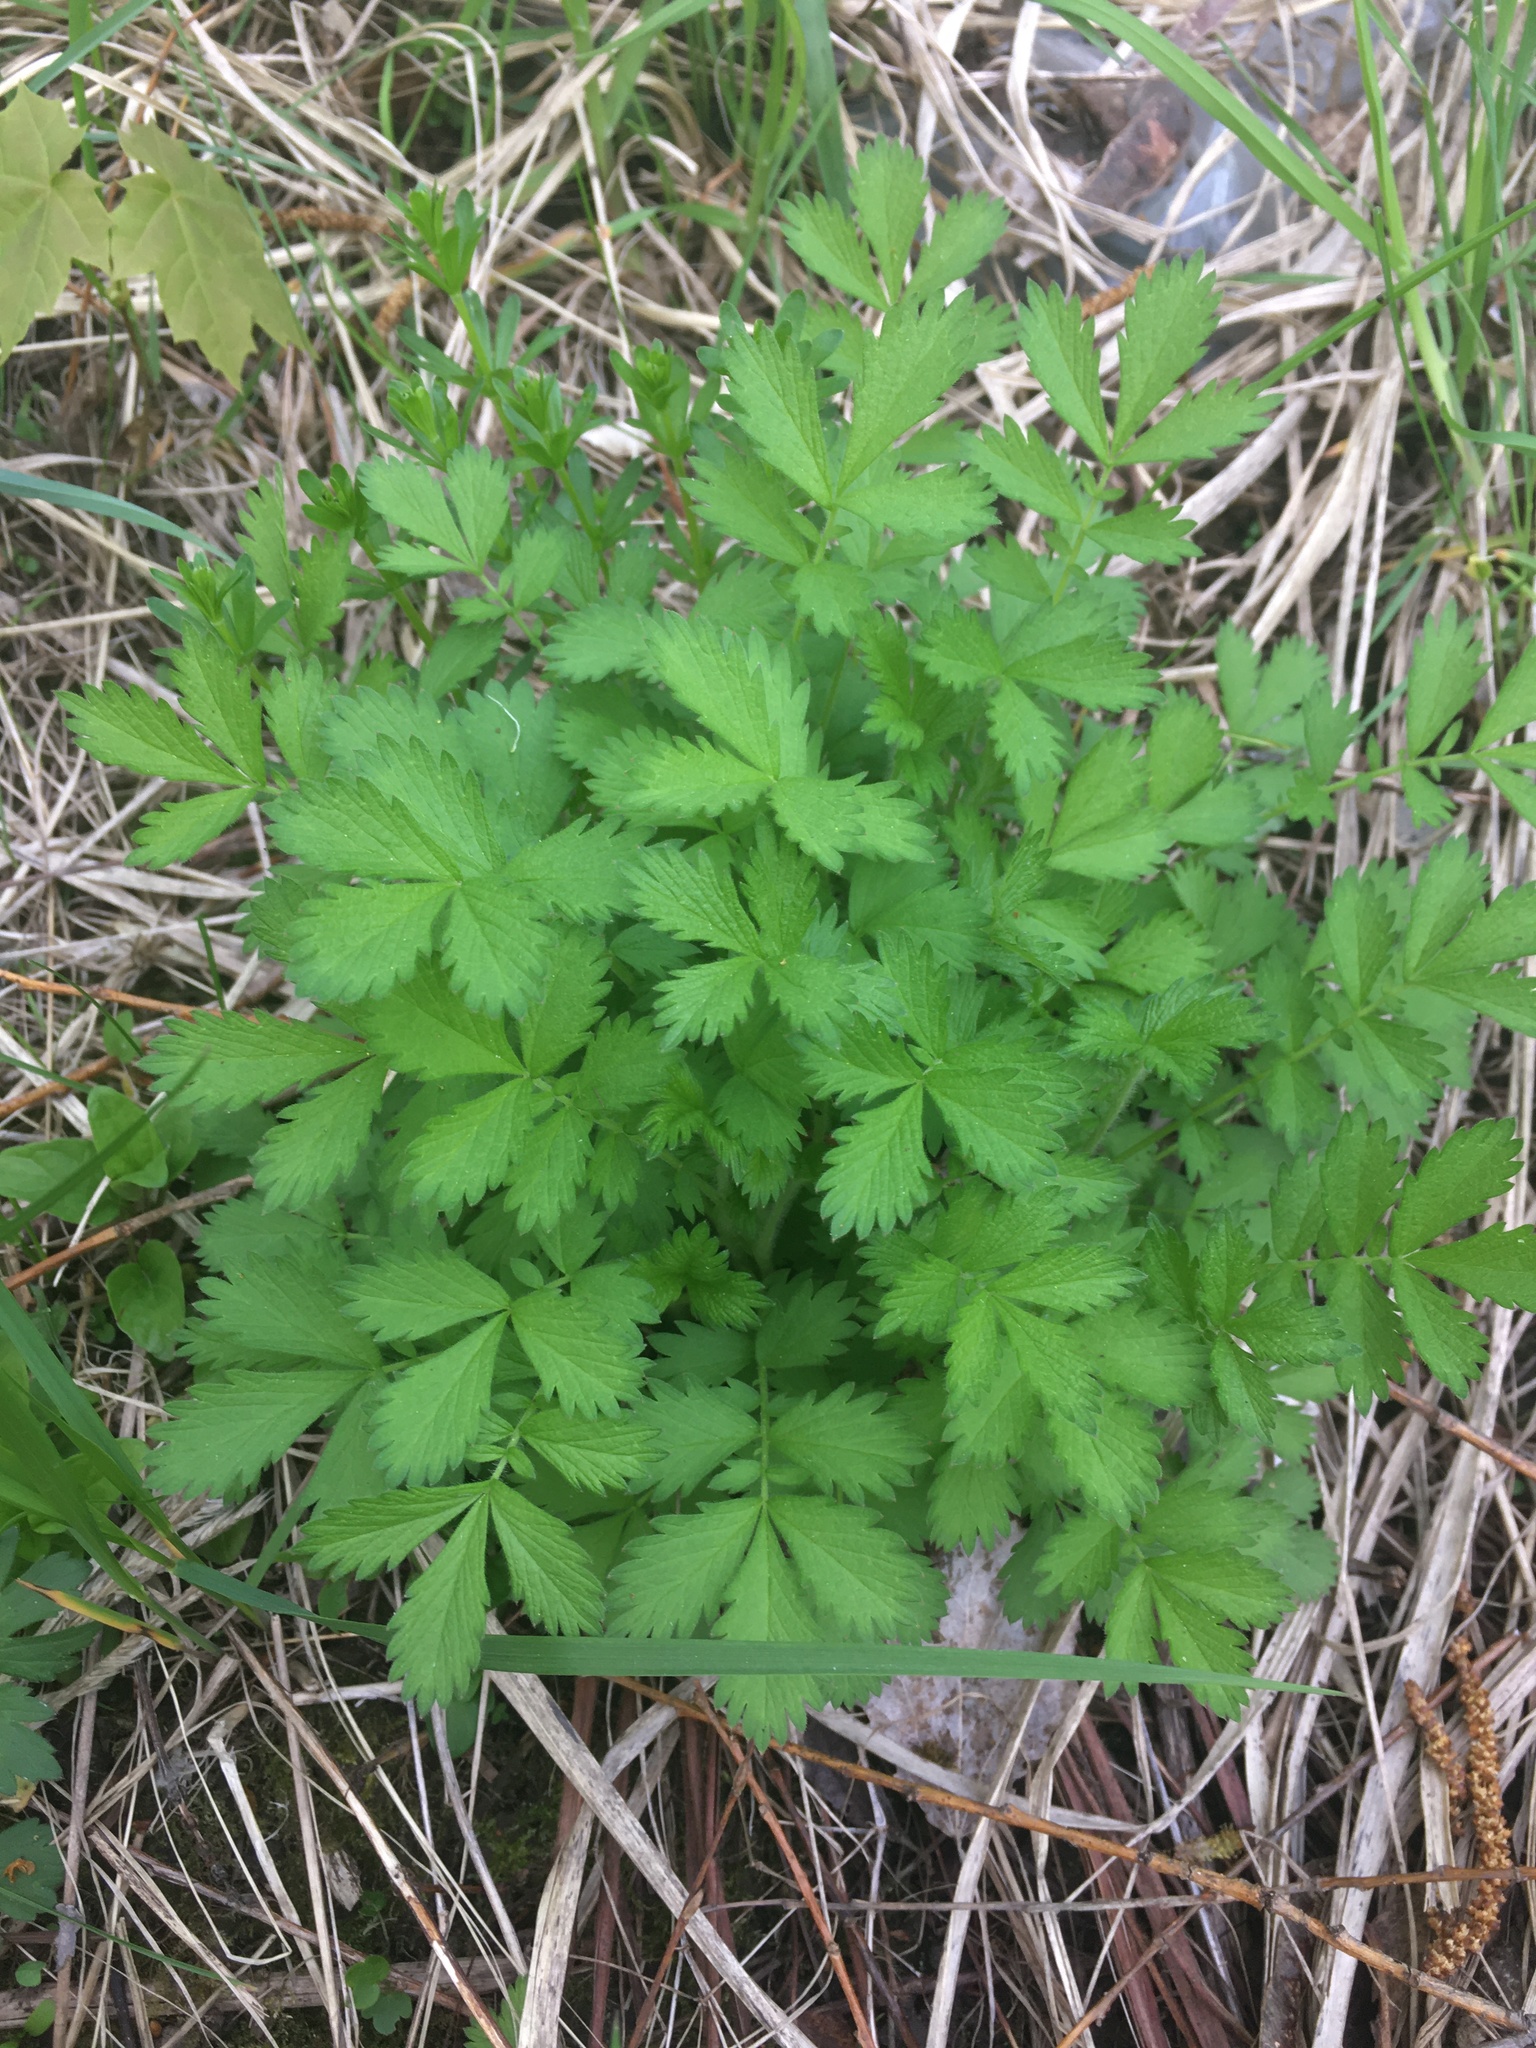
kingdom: Plantae
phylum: Tracheophyta
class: Magnoliopsida
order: Rosales
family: Rosaceae
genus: Agrimonia
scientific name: Agrimonia pilosa
